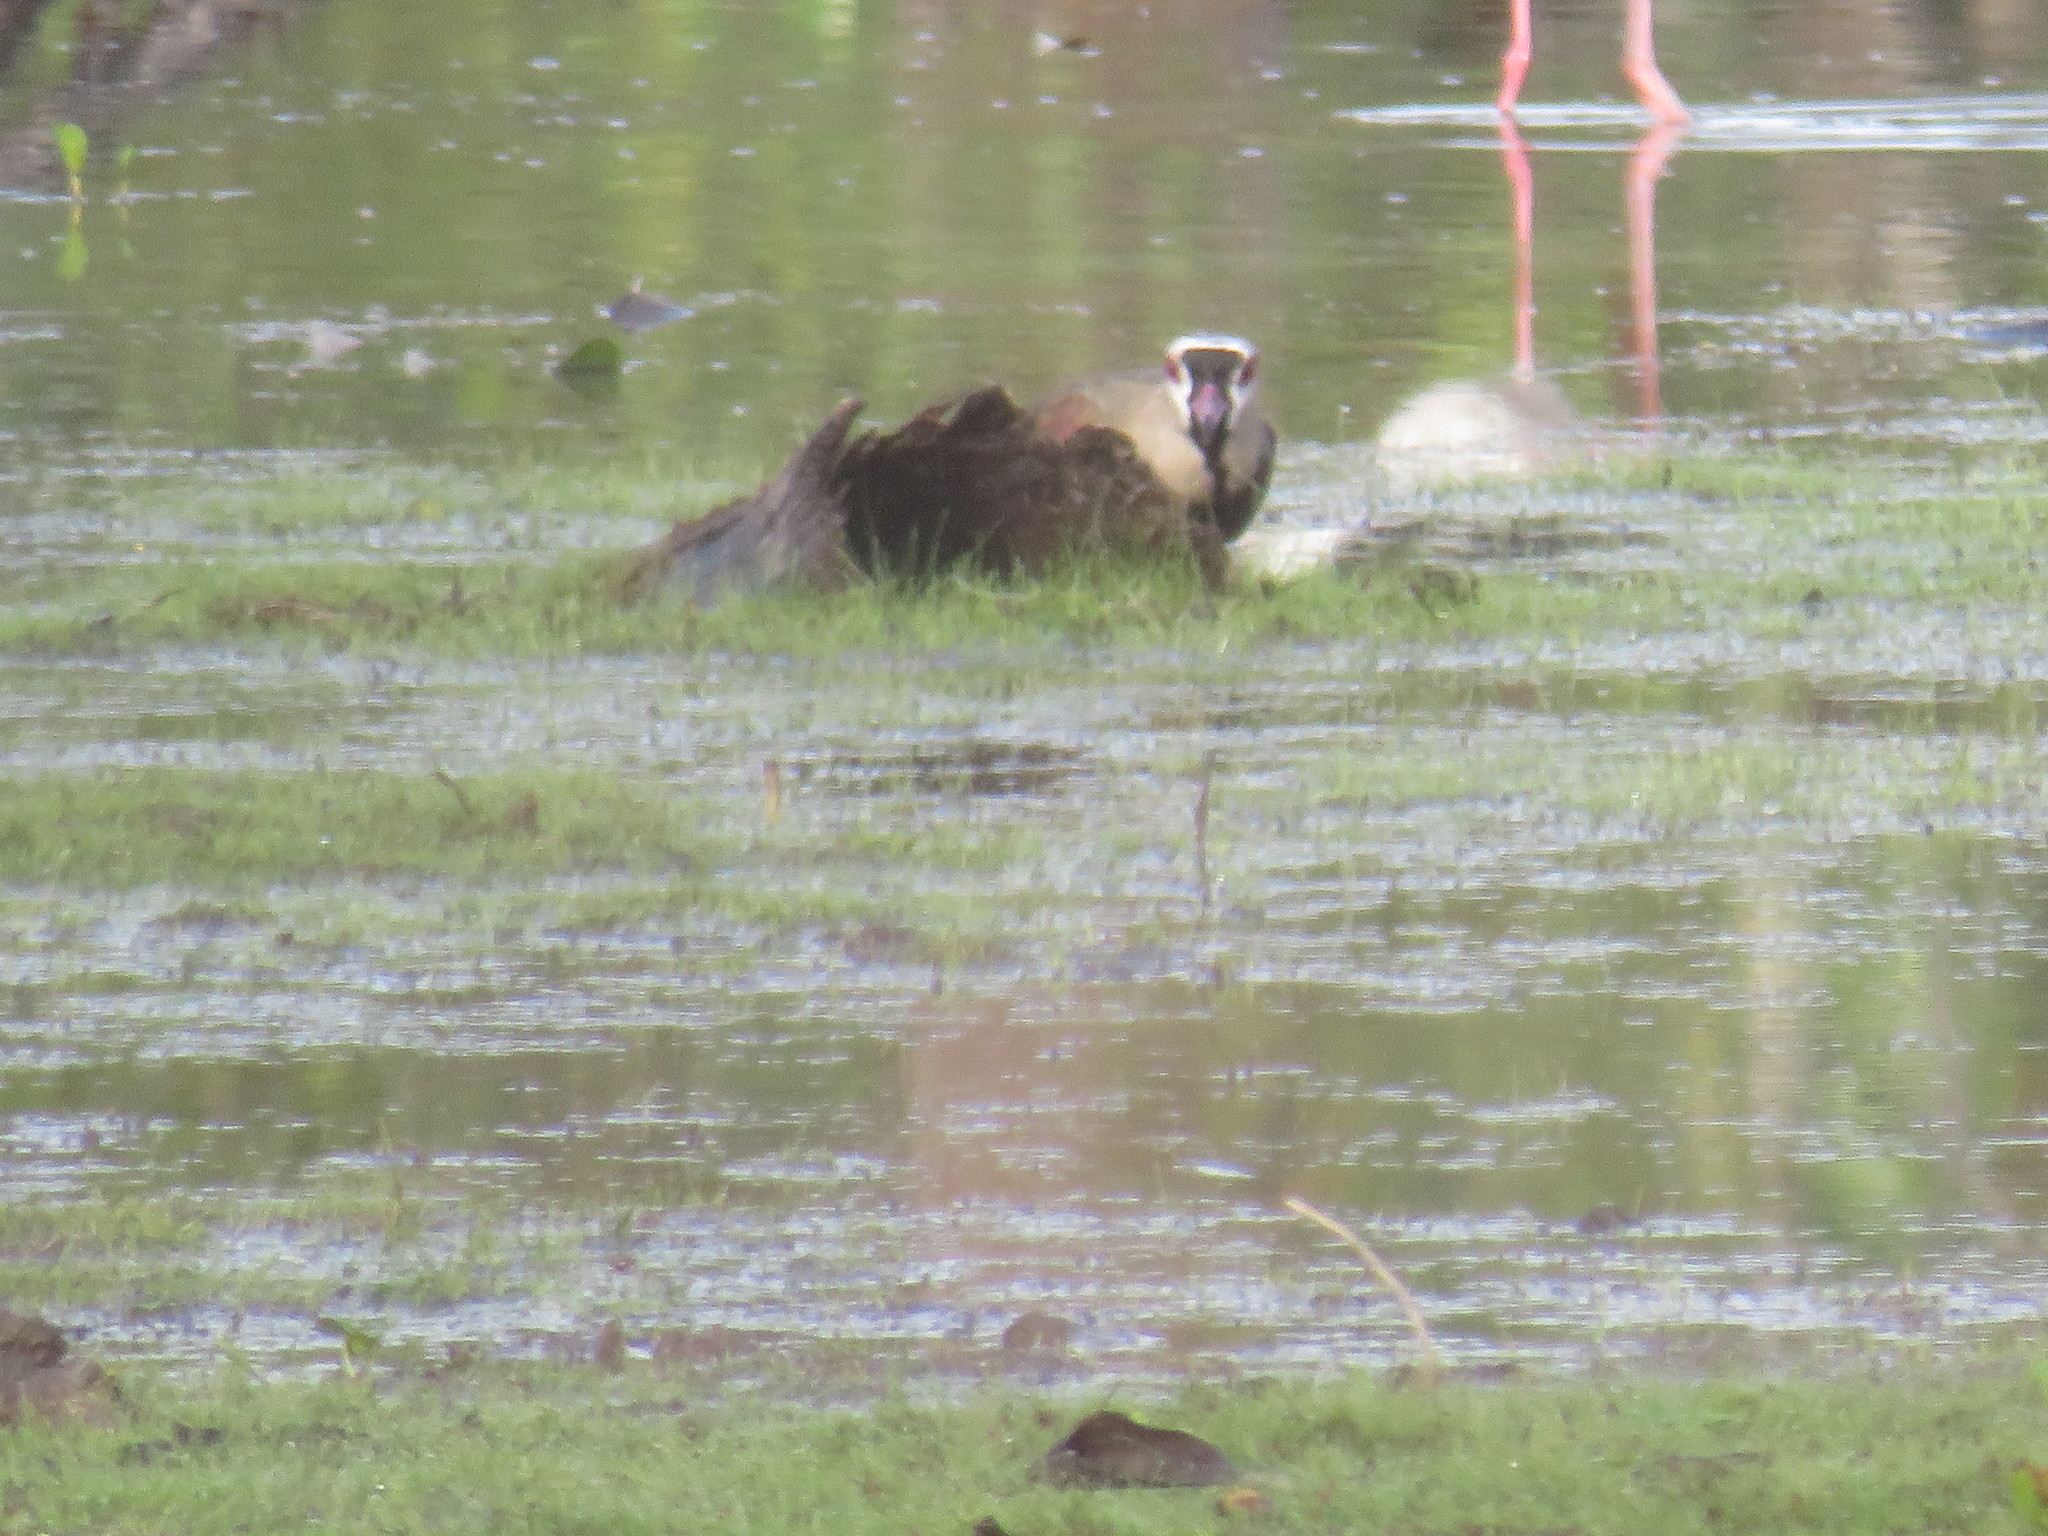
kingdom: Animalia
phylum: Chordata
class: Aves
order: Charadriiformes
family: Charadriidae
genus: Vanellus
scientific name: Vanellus chilensis
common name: Southern lapwing
